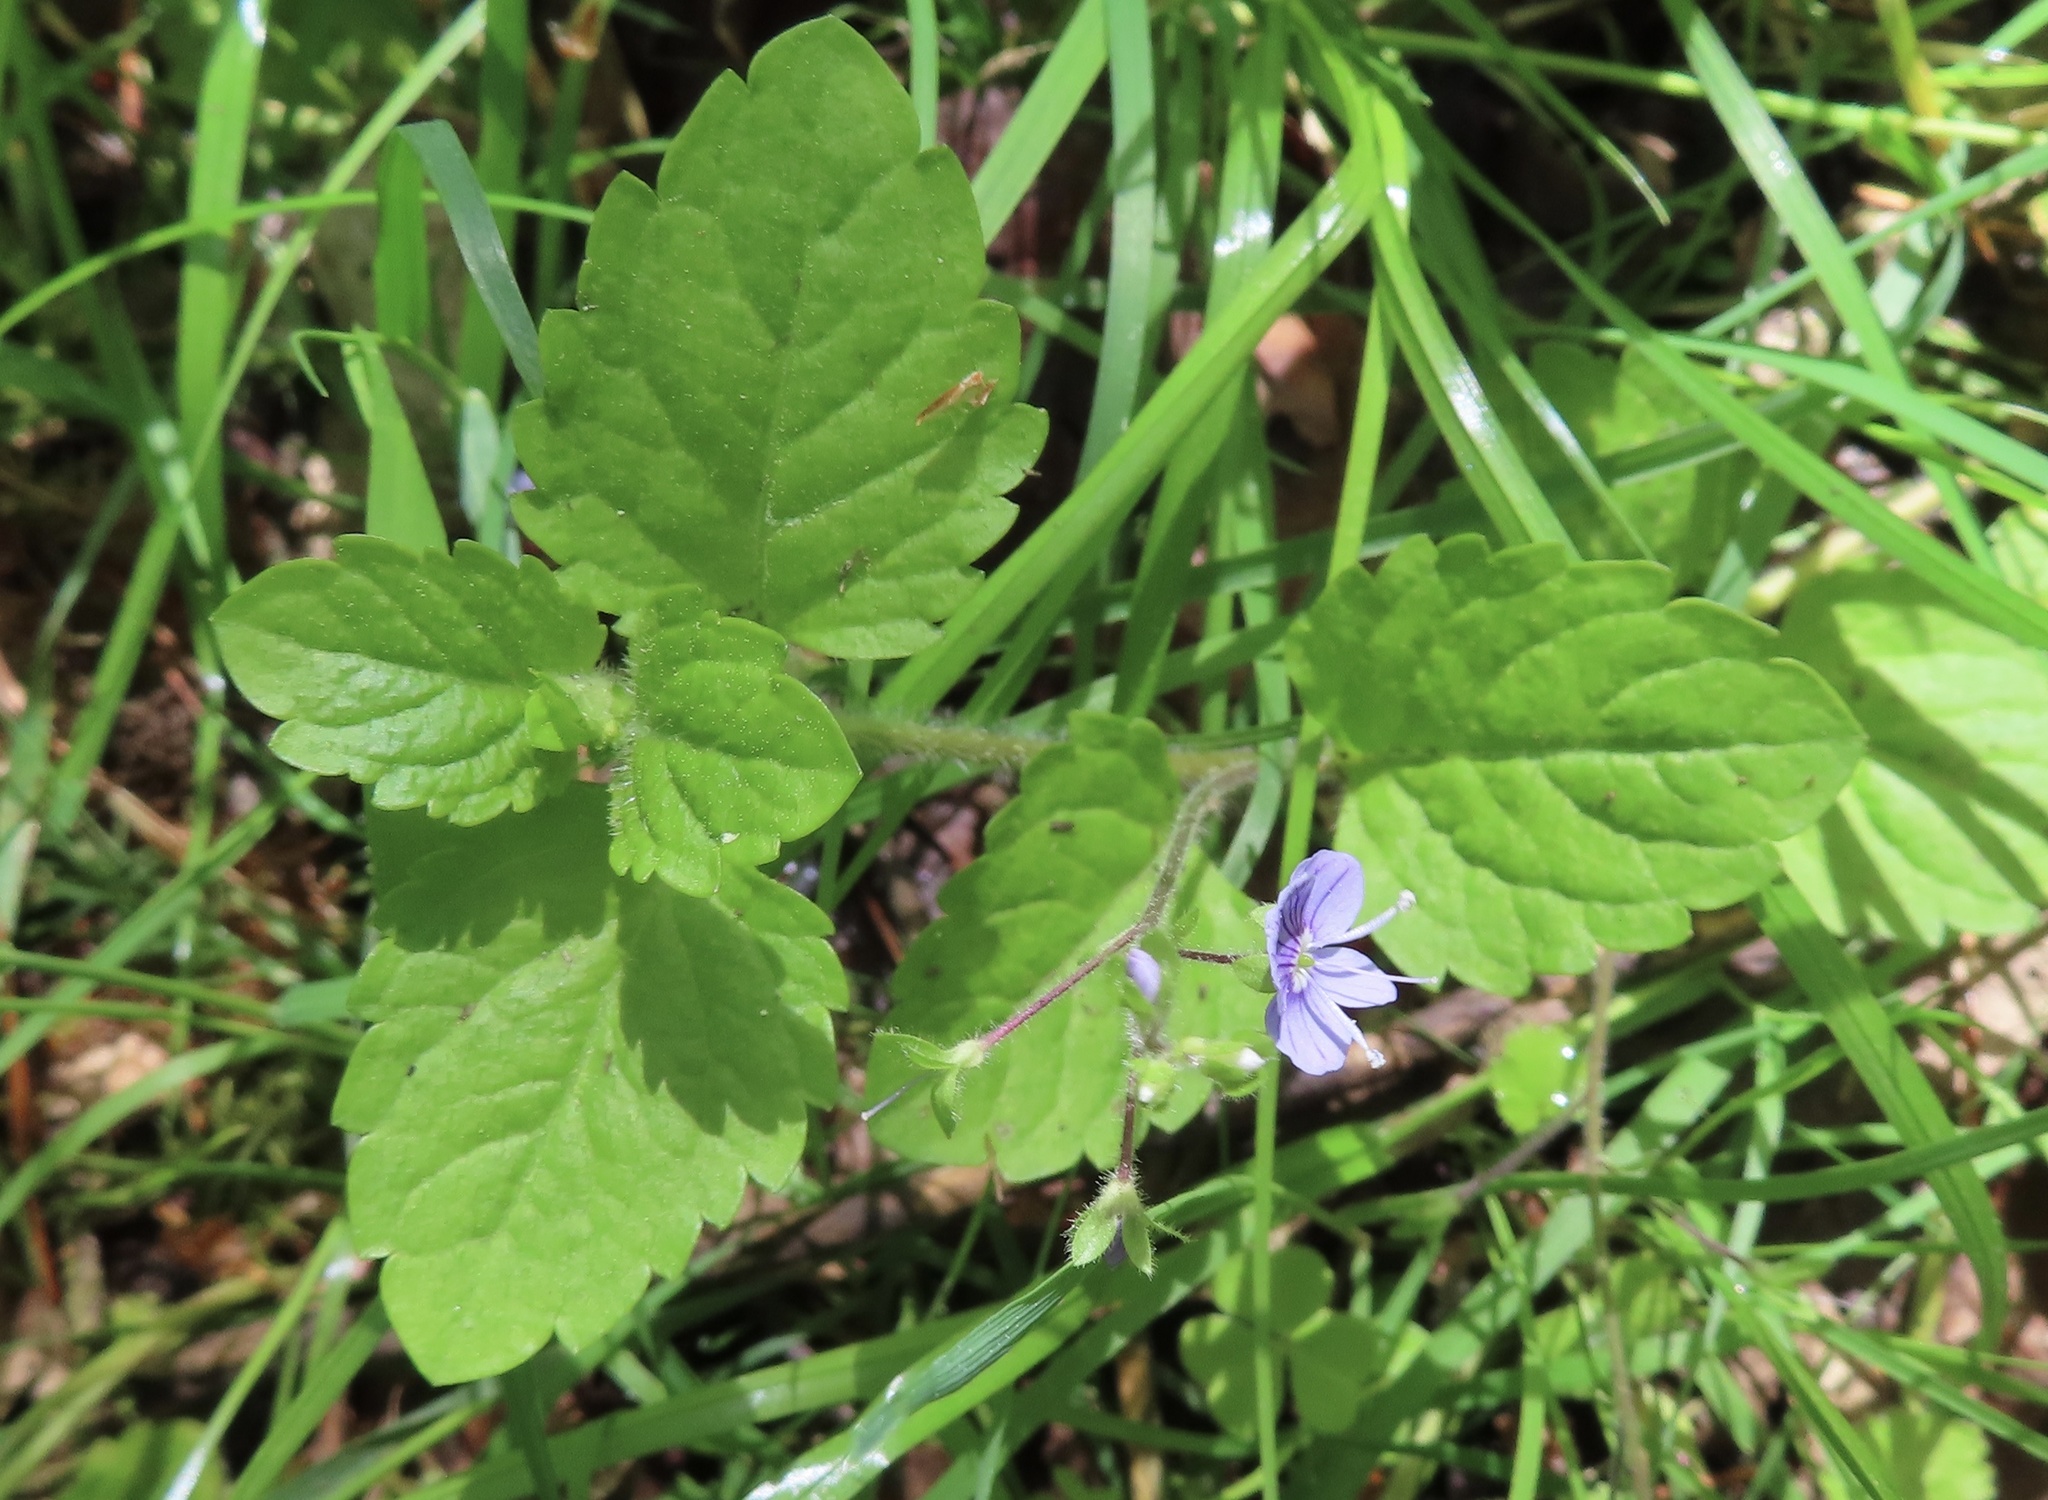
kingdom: Plantae
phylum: Tracheophyta
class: Magnoliopsida
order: Lamiales
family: Plantaginaceae
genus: Veronica
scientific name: Veronica montana
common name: Wood speedwell
